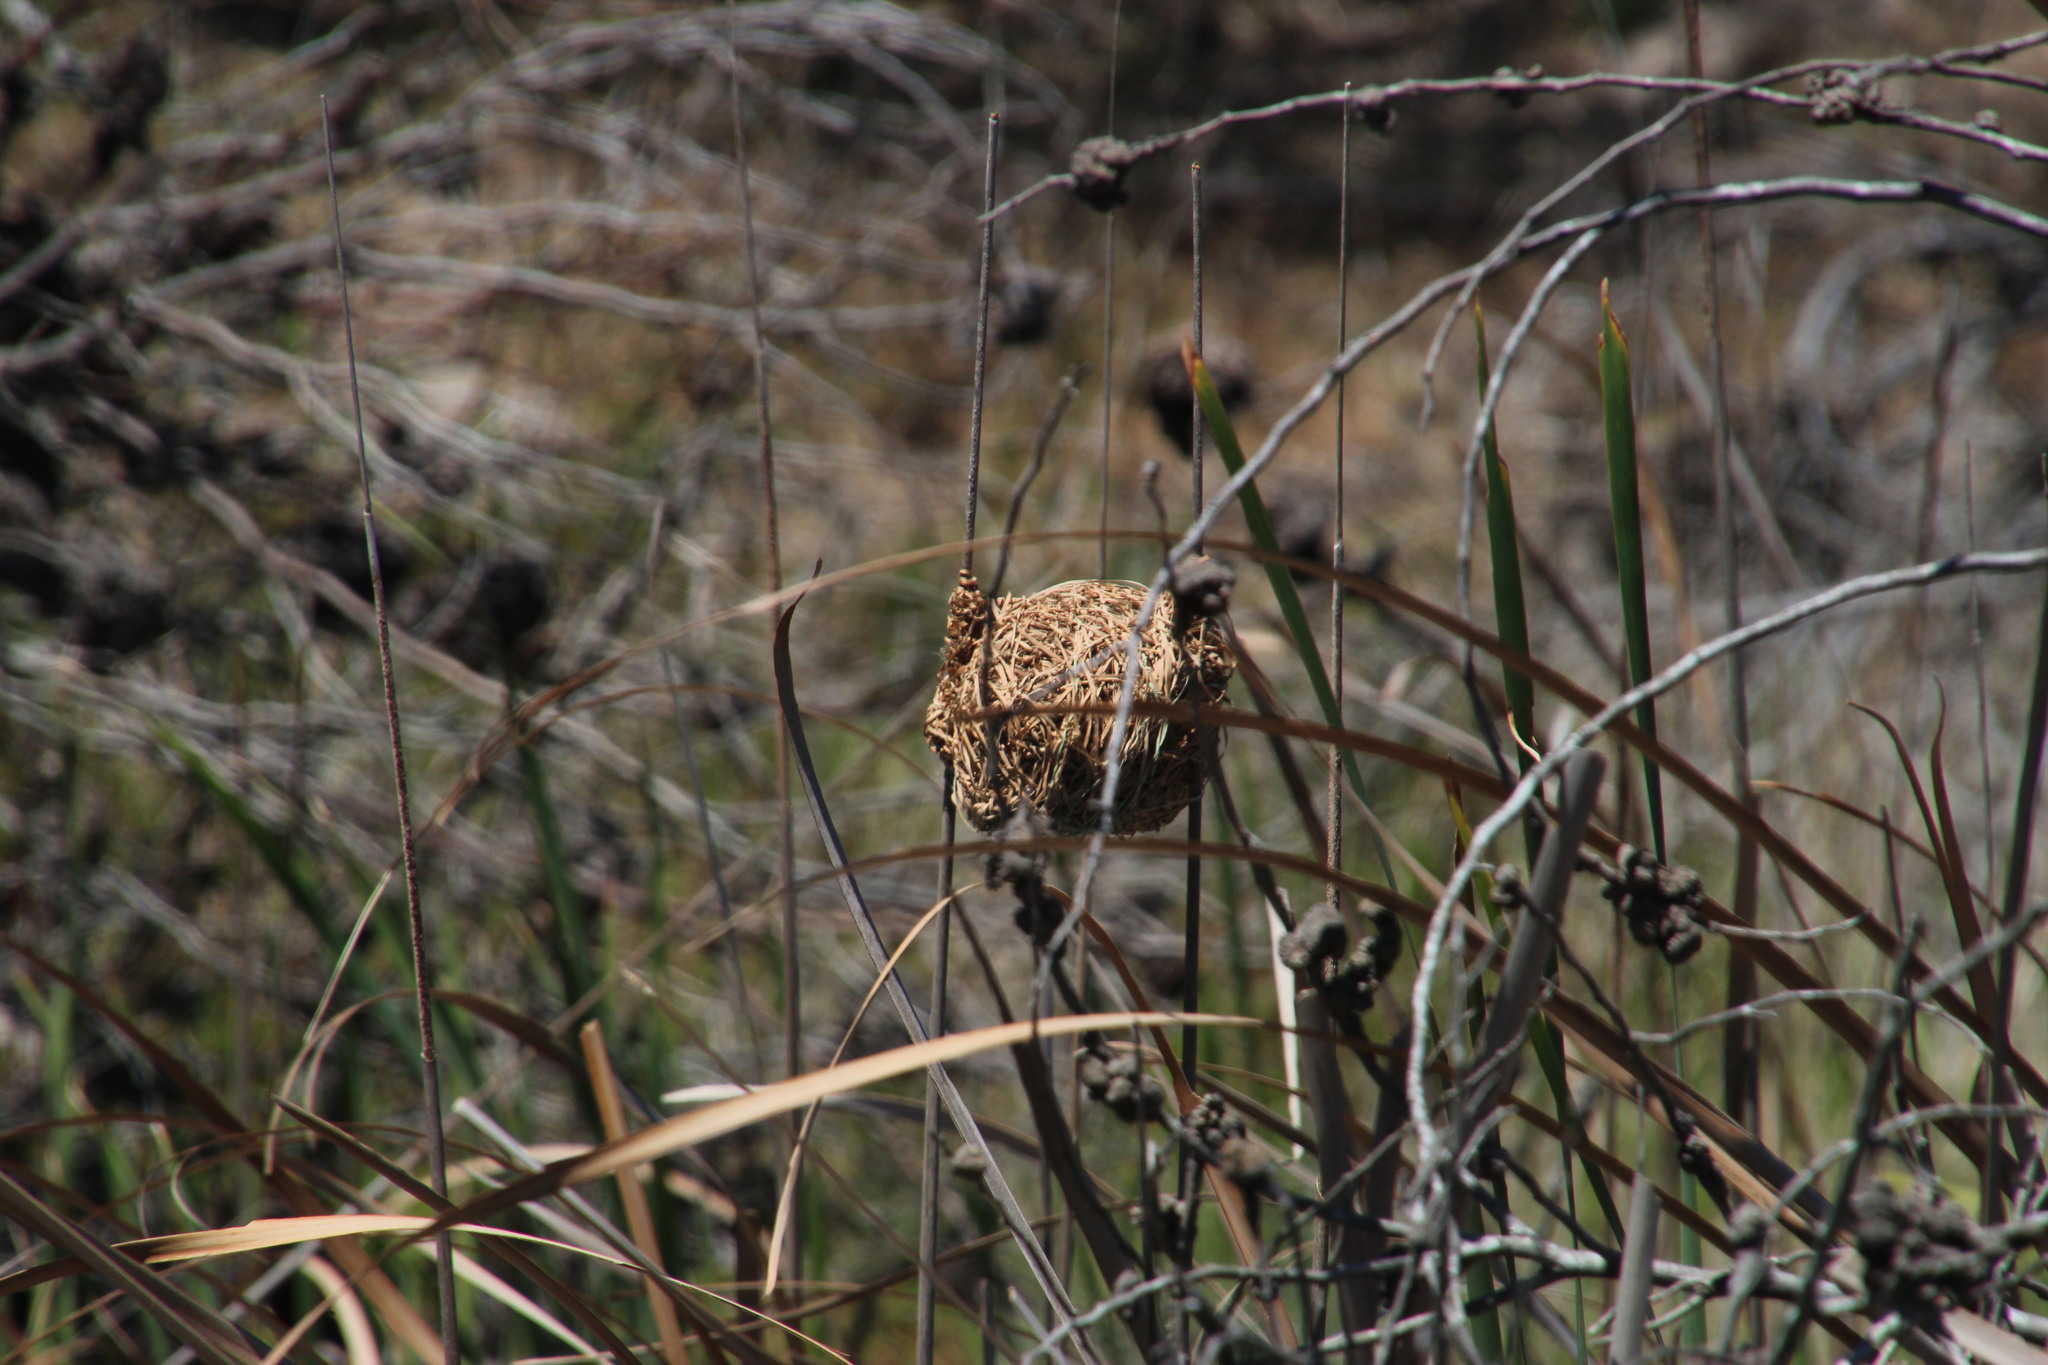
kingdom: Animalia
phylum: Chordata
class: Aves
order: Passeriformes
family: Ploceidae
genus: Ploceus
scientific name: Ploceus capensis
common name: Cape weaver
